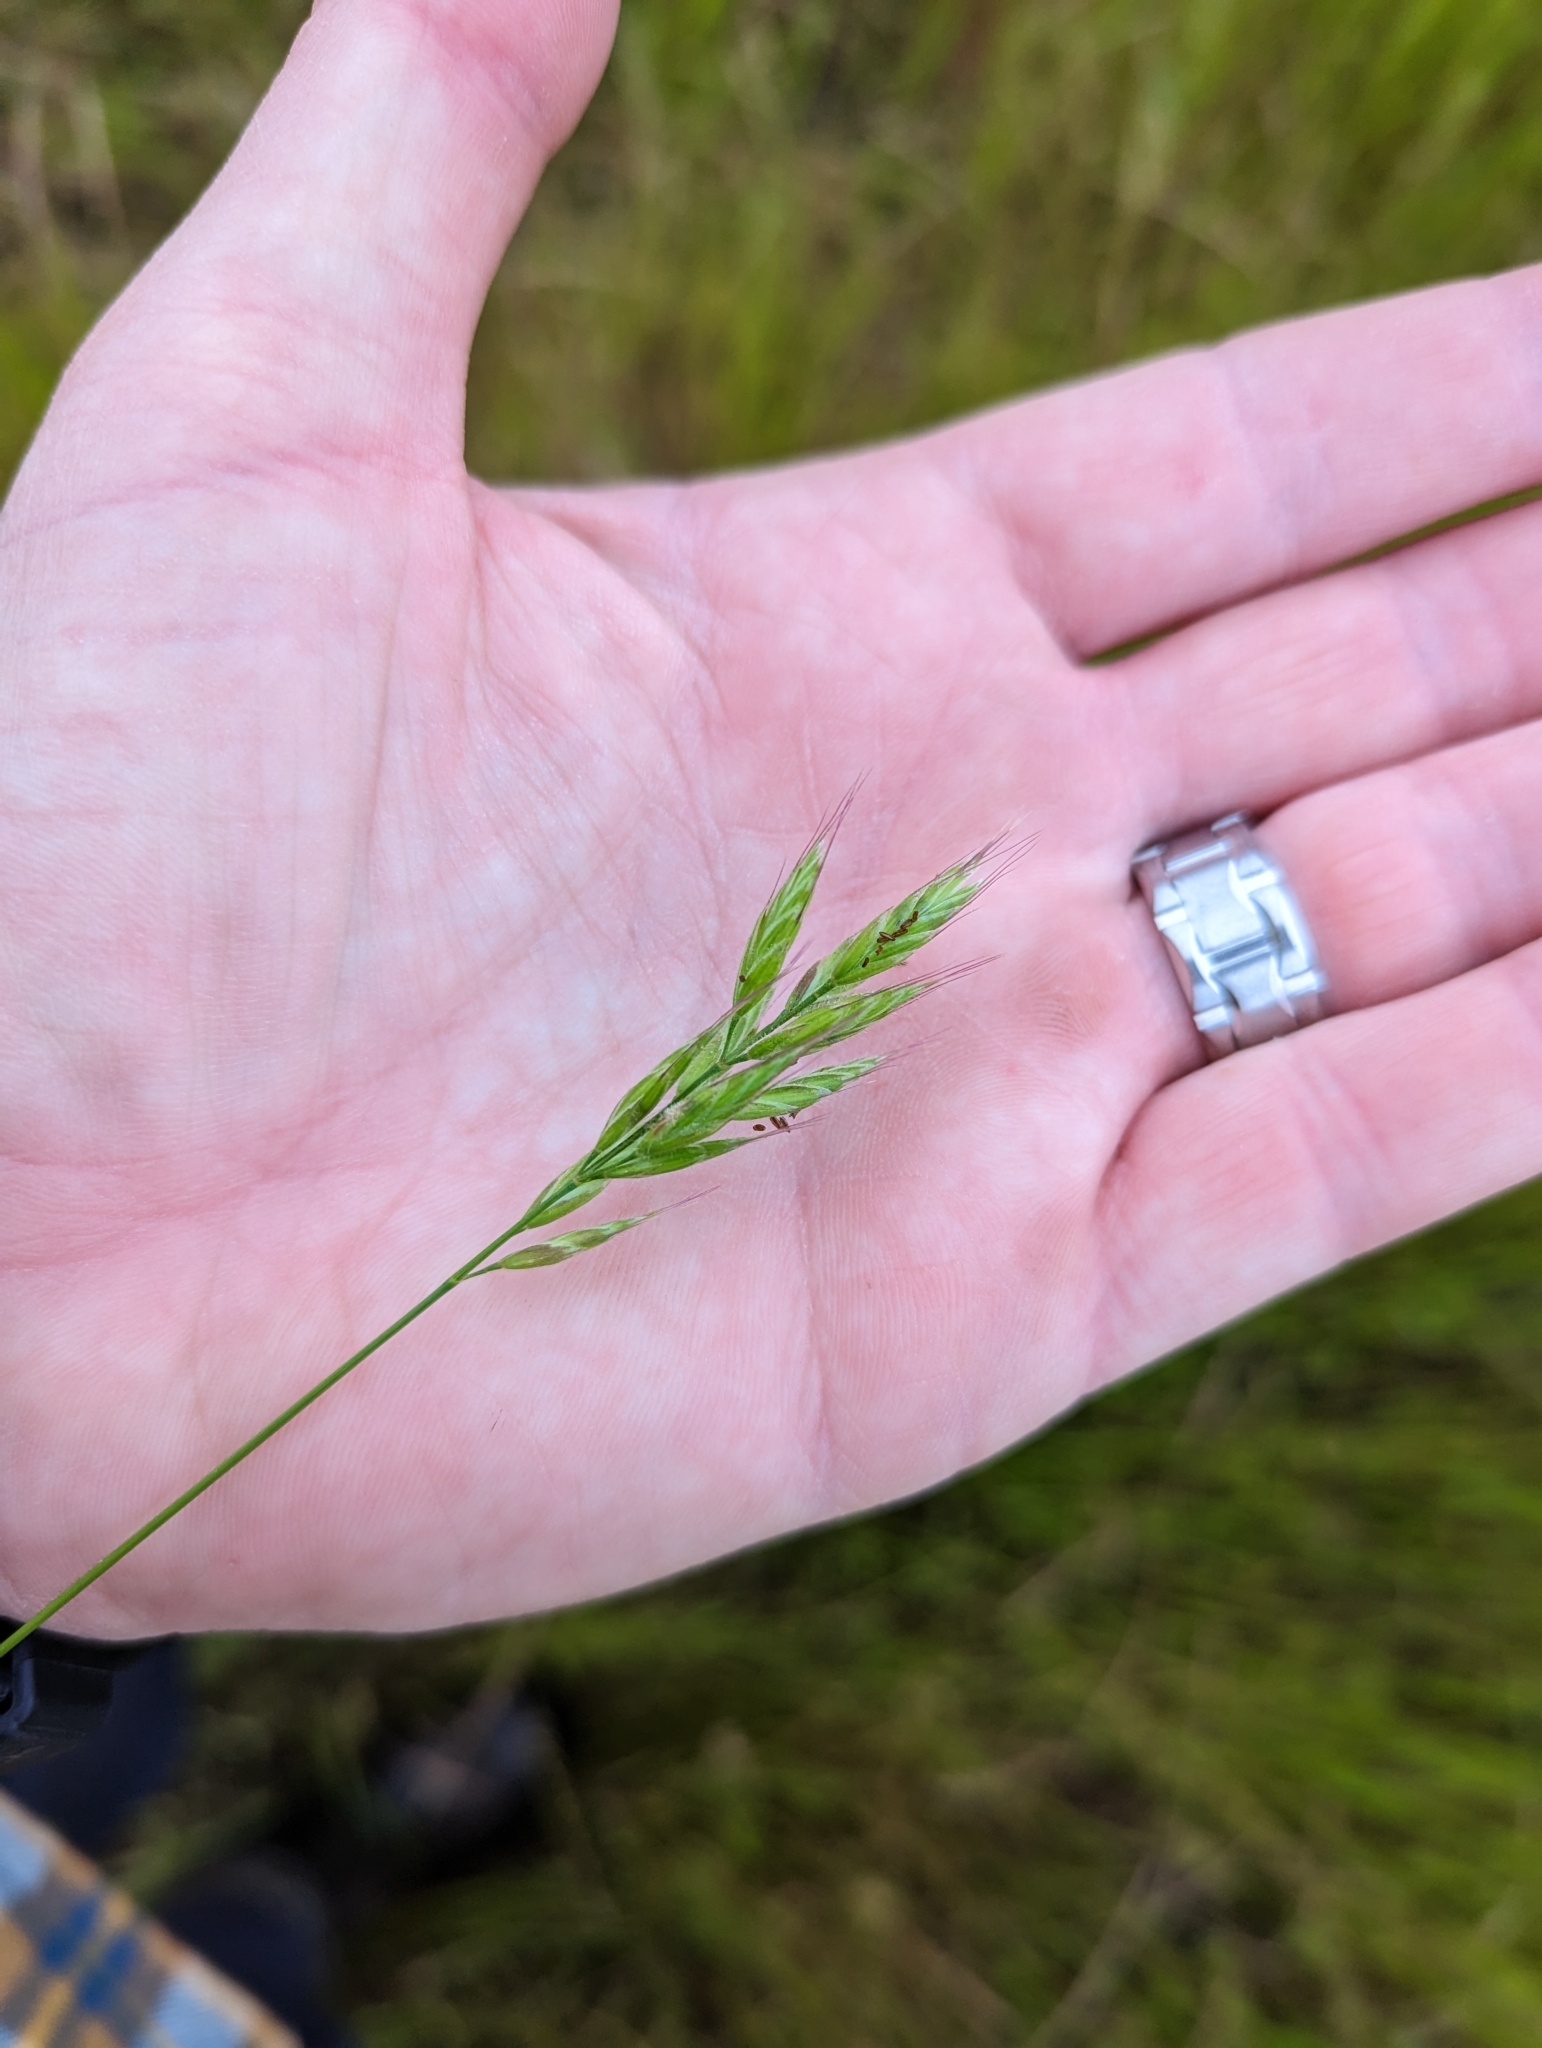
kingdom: Plantae
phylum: Tracheophyta
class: Liliopsida
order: Poales
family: Poaceae
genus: Bromus
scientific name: Bromus hordeaceus
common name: Soft brome
